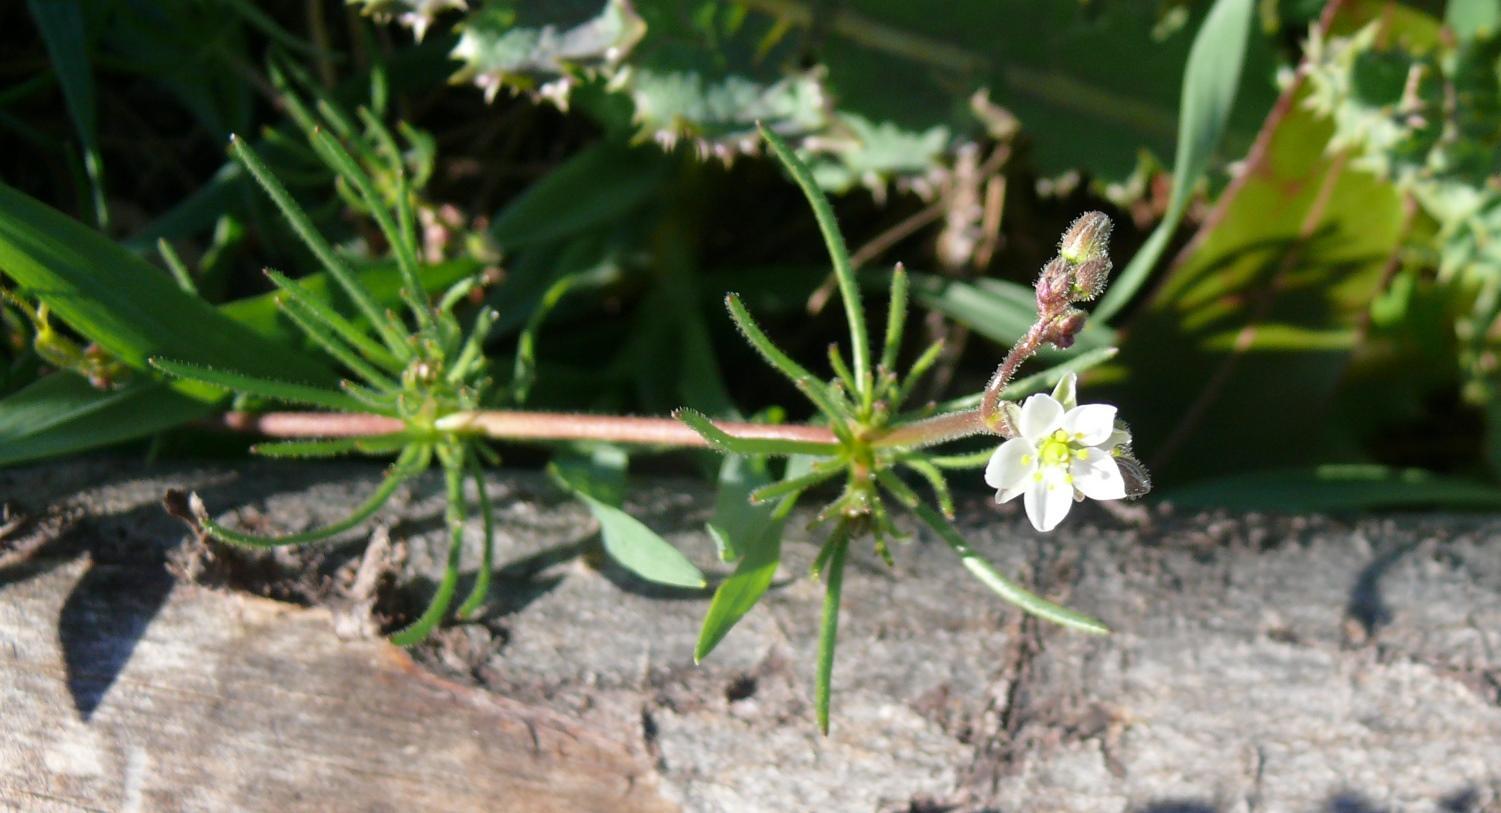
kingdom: Plantae
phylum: Tracheophyta
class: Magnoliopsida
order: Caryophyllales
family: Caryophyllaceae
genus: Spergula
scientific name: Spergula arvensis
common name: Corn spurrey
